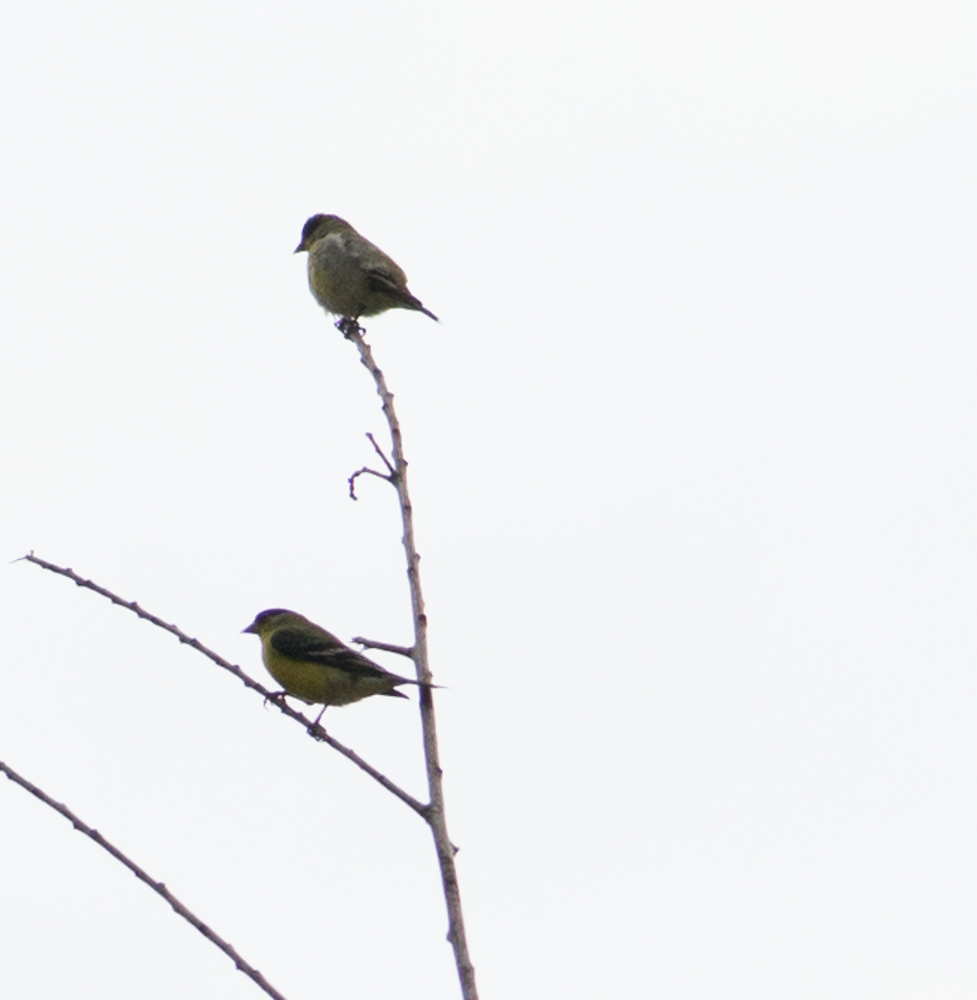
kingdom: Animalia
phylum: Chordata
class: Aves
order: Passeriformes
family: Fringillidae
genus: Spinus
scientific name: Spinus psaltria
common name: Lesser goldfinch
